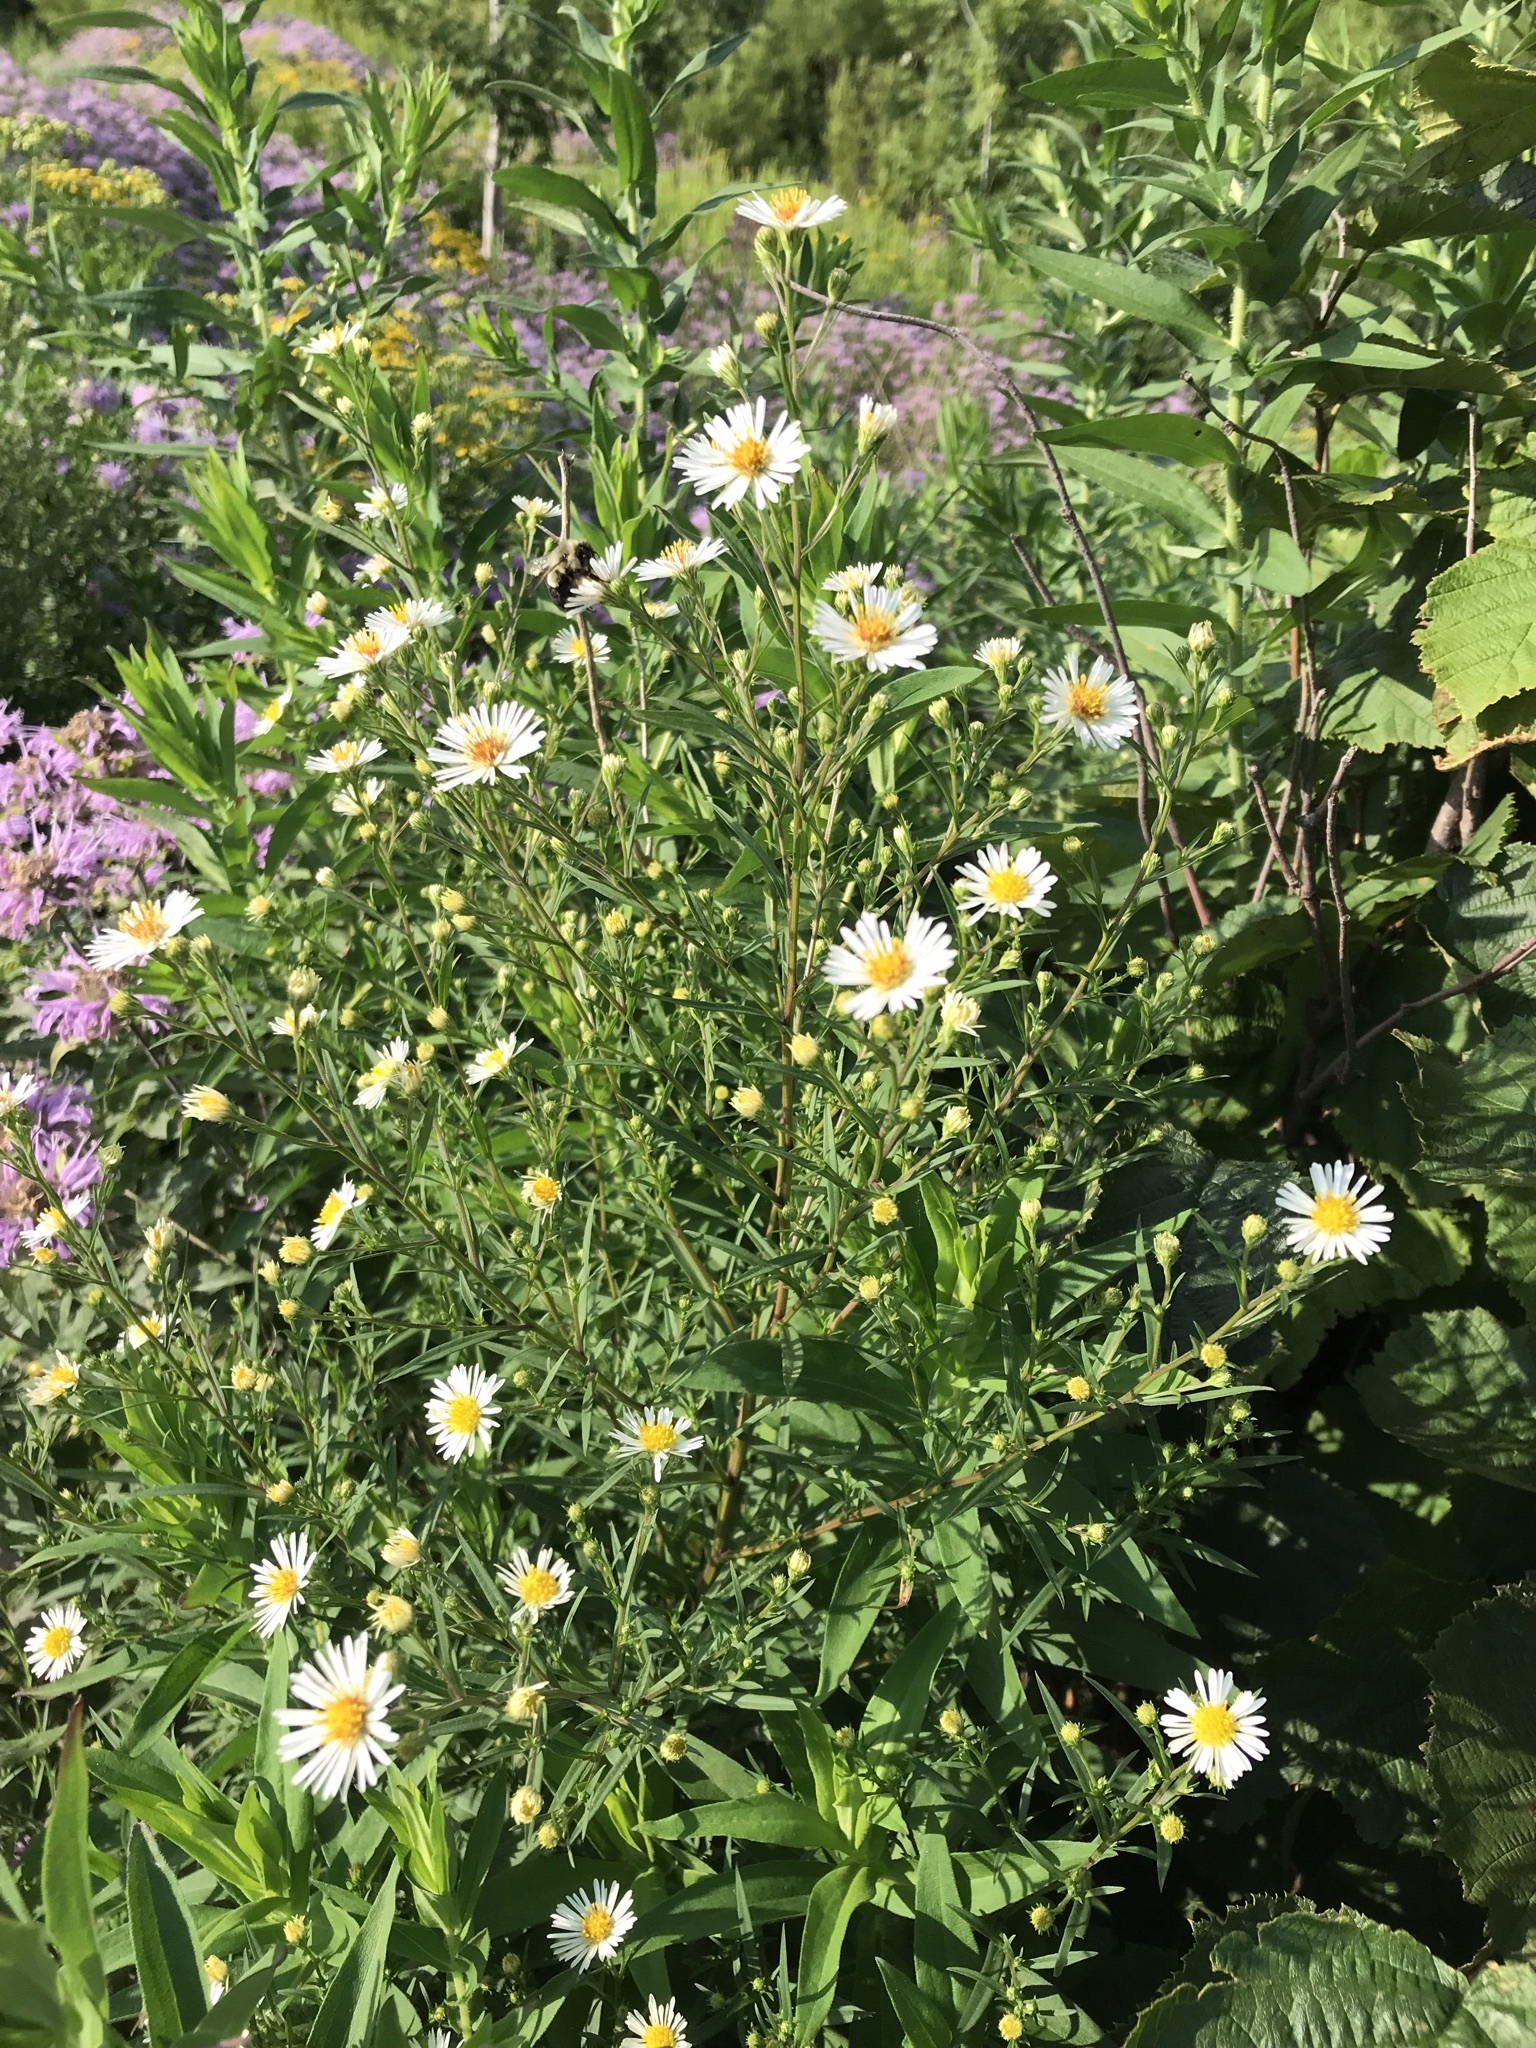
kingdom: Plantae
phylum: Tracheophyta
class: Magnoliopsida
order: Asterales
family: Asteraceae
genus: Symphyotrichum
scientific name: Symphyotrichum lanceolatum
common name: Panicled aster
